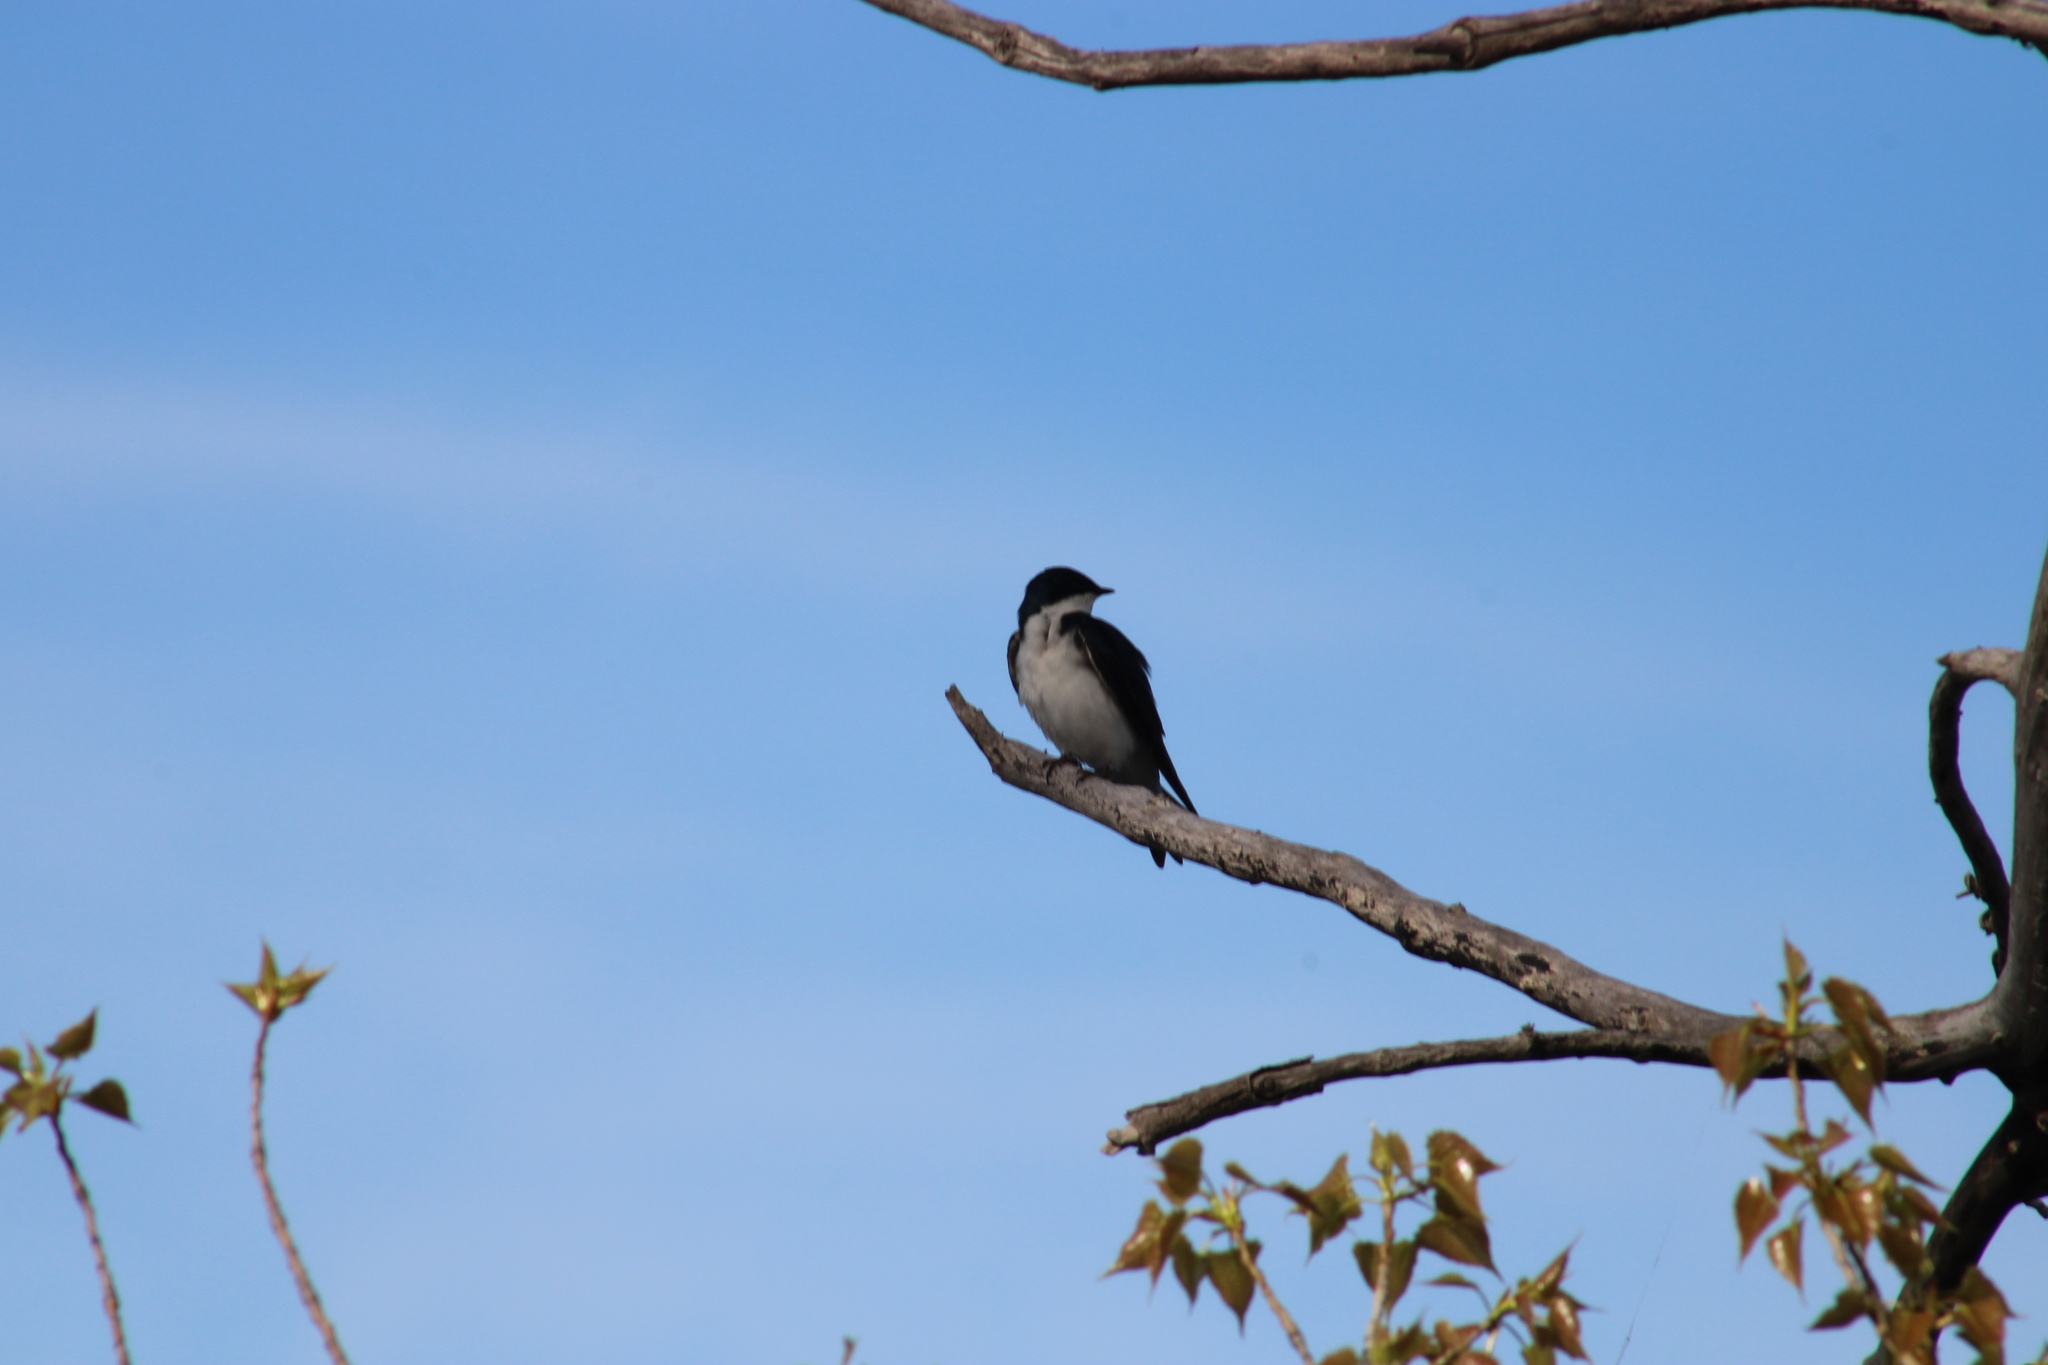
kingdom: Animalia
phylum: Chordata
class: Aves
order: Passeriformes
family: Hirundinidae
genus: Tachycineta
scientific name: Tachycineta bicolor
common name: Tree swallow
